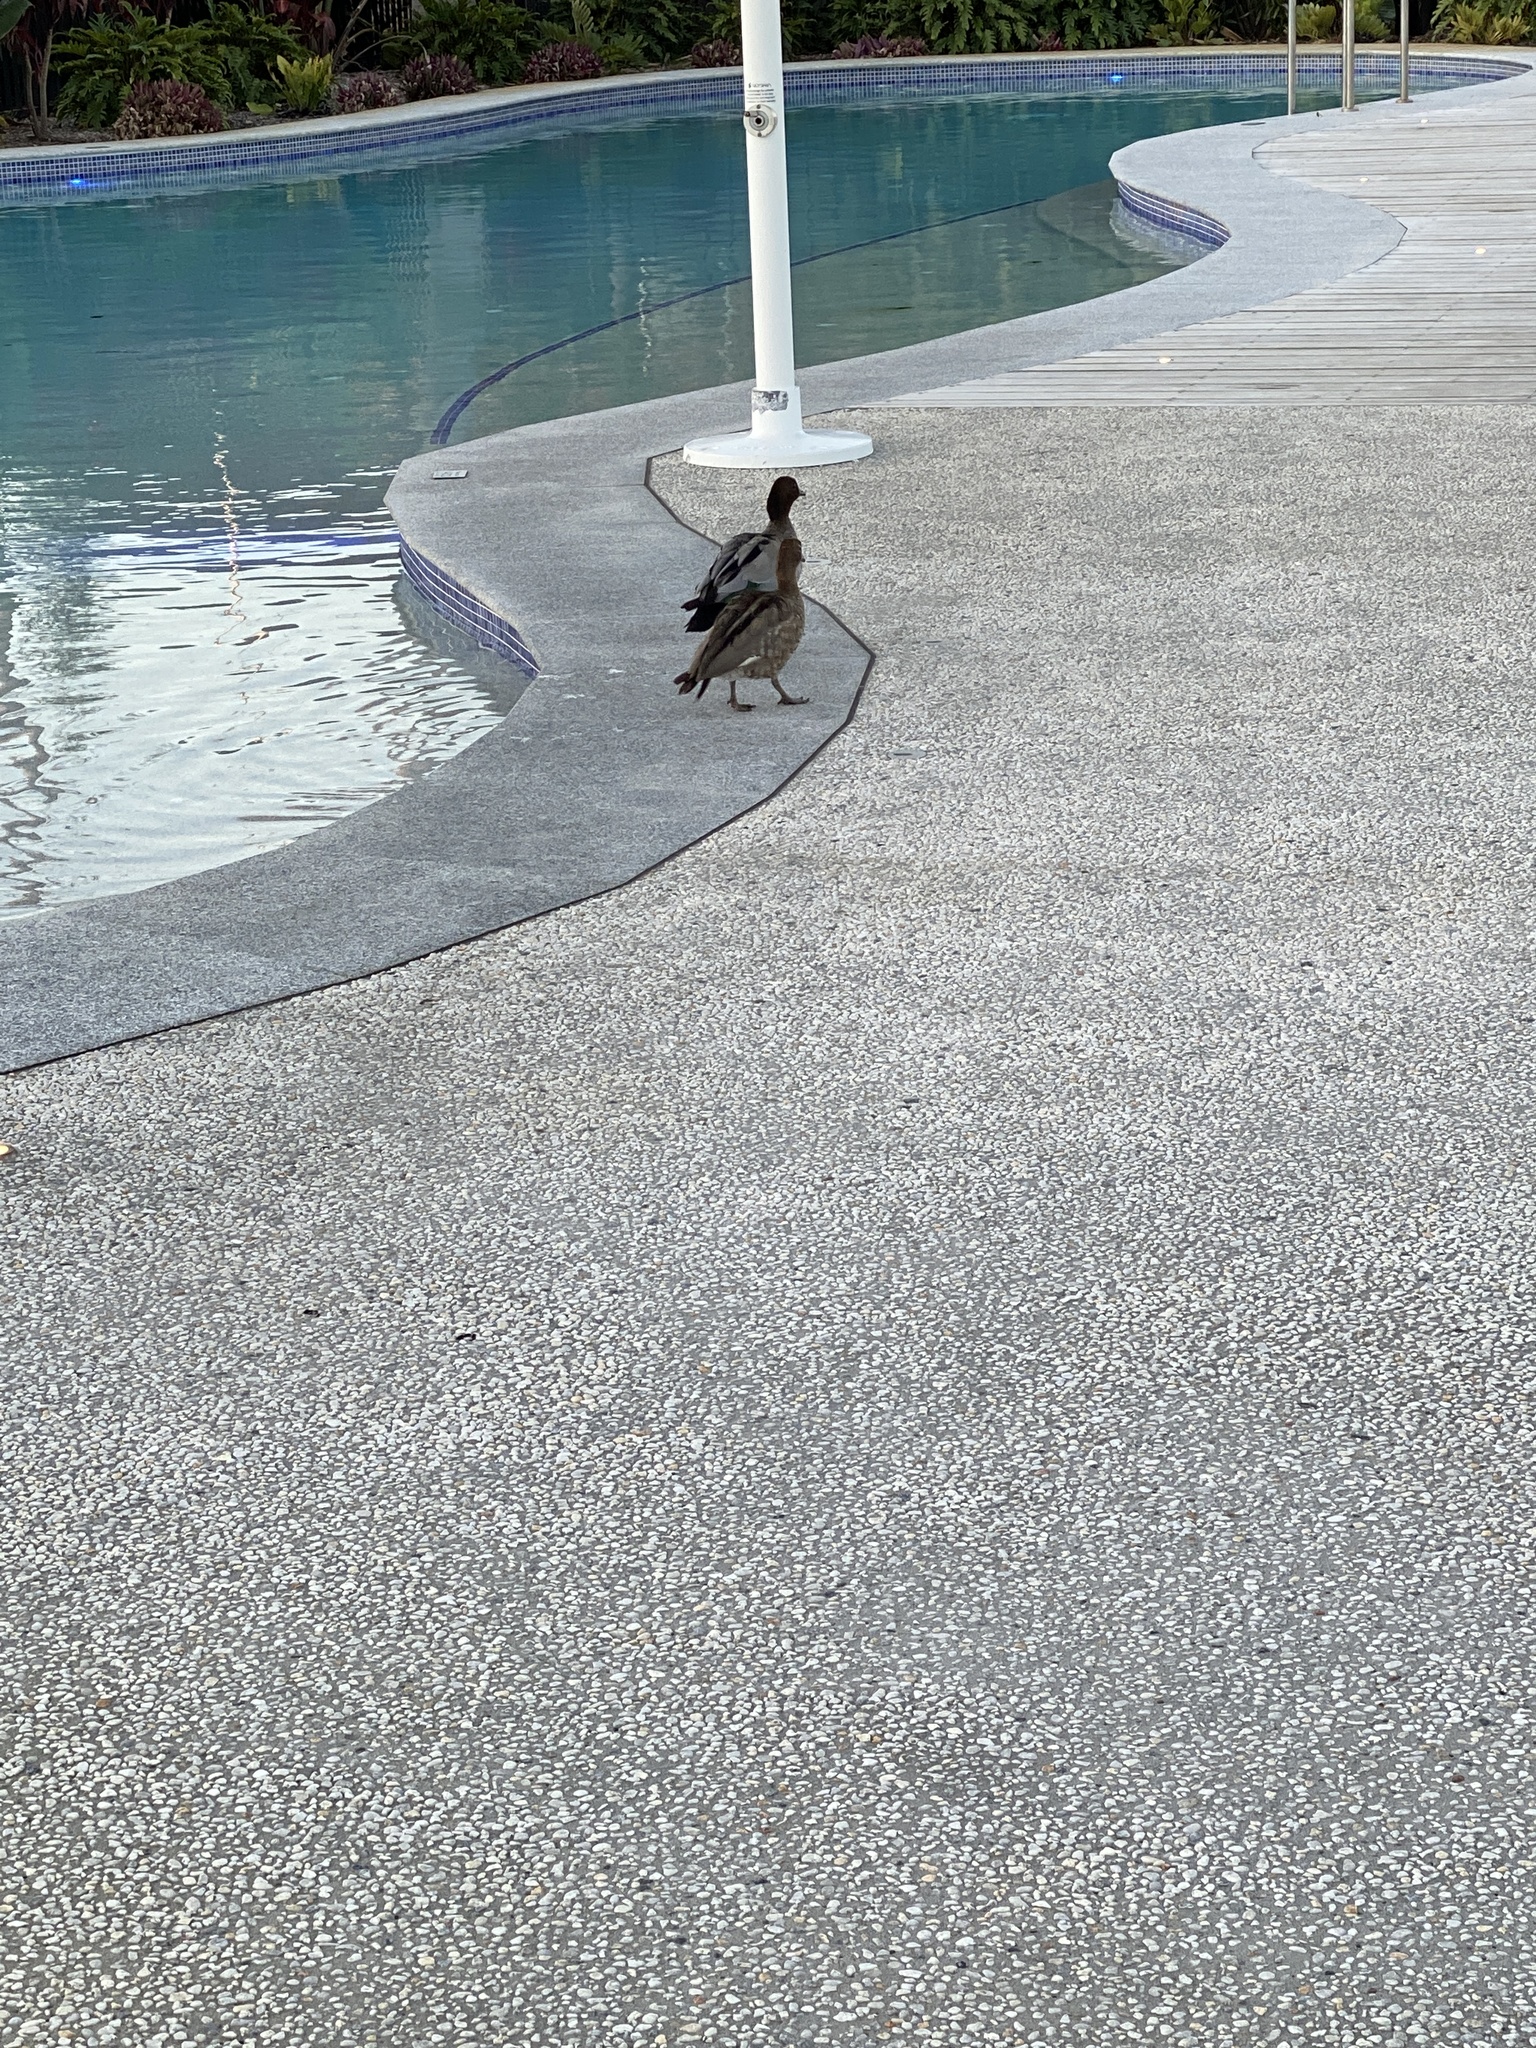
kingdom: Animalia
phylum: Chordata
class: Aves
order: Anseriformes
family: Anatidae
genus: Chenonetta
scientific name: Chenonetta jubata
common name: Maned duck
